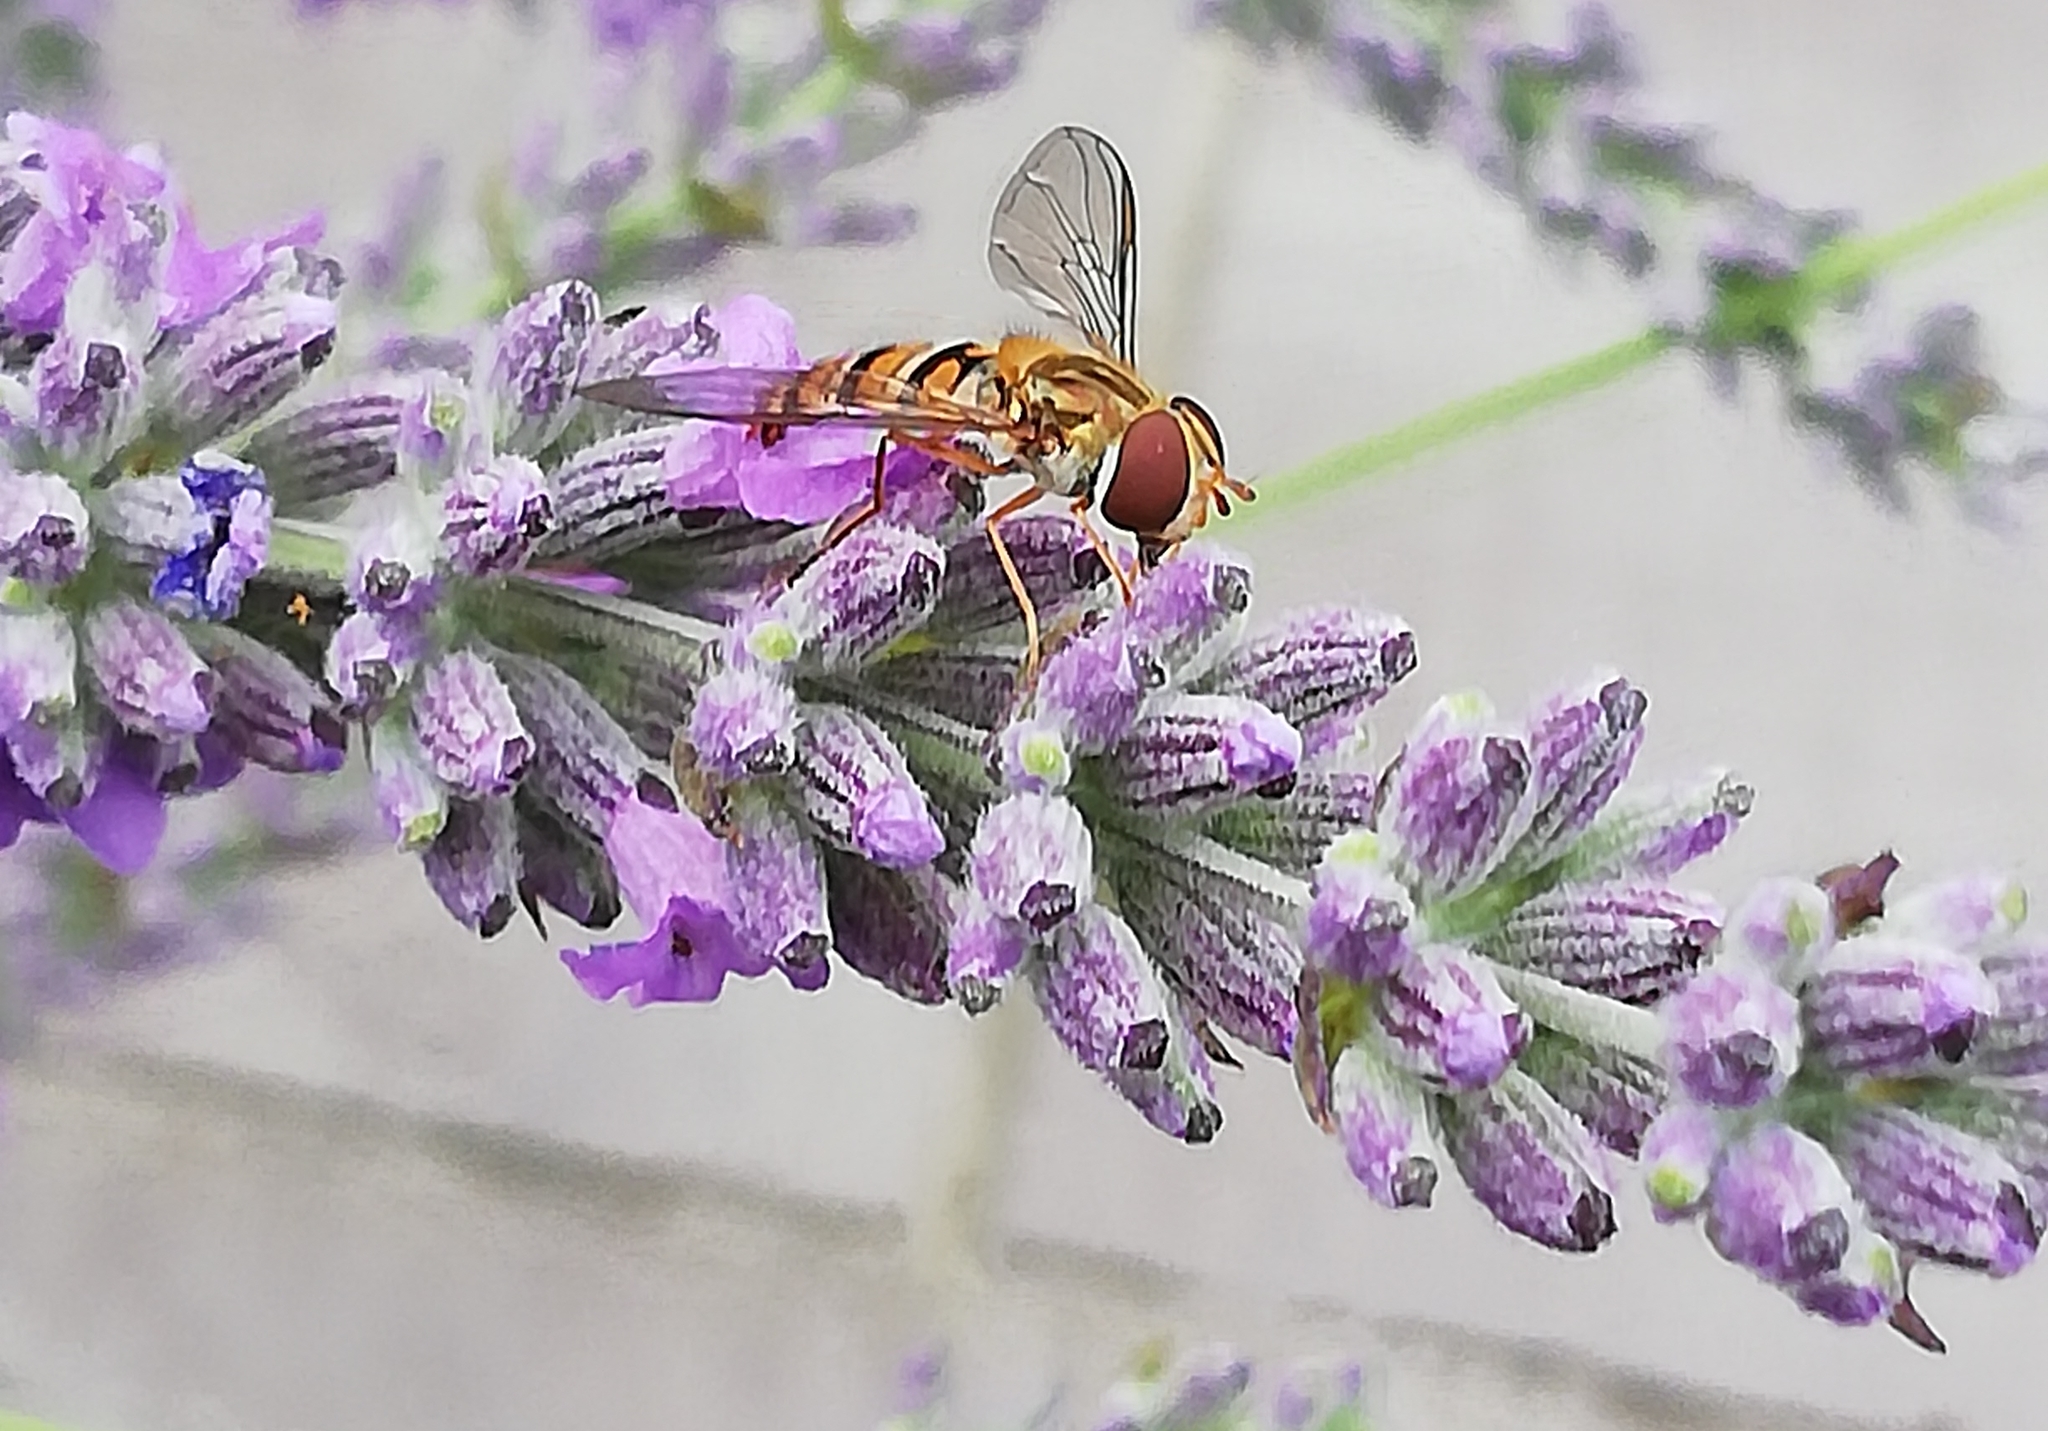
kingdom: Animalia
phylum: Arthropoda
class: Insecta
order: Diptera
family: Syrphidae
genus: Episyrphus
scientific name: Episyrphus balteatus
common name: Marmalade hoverfly
